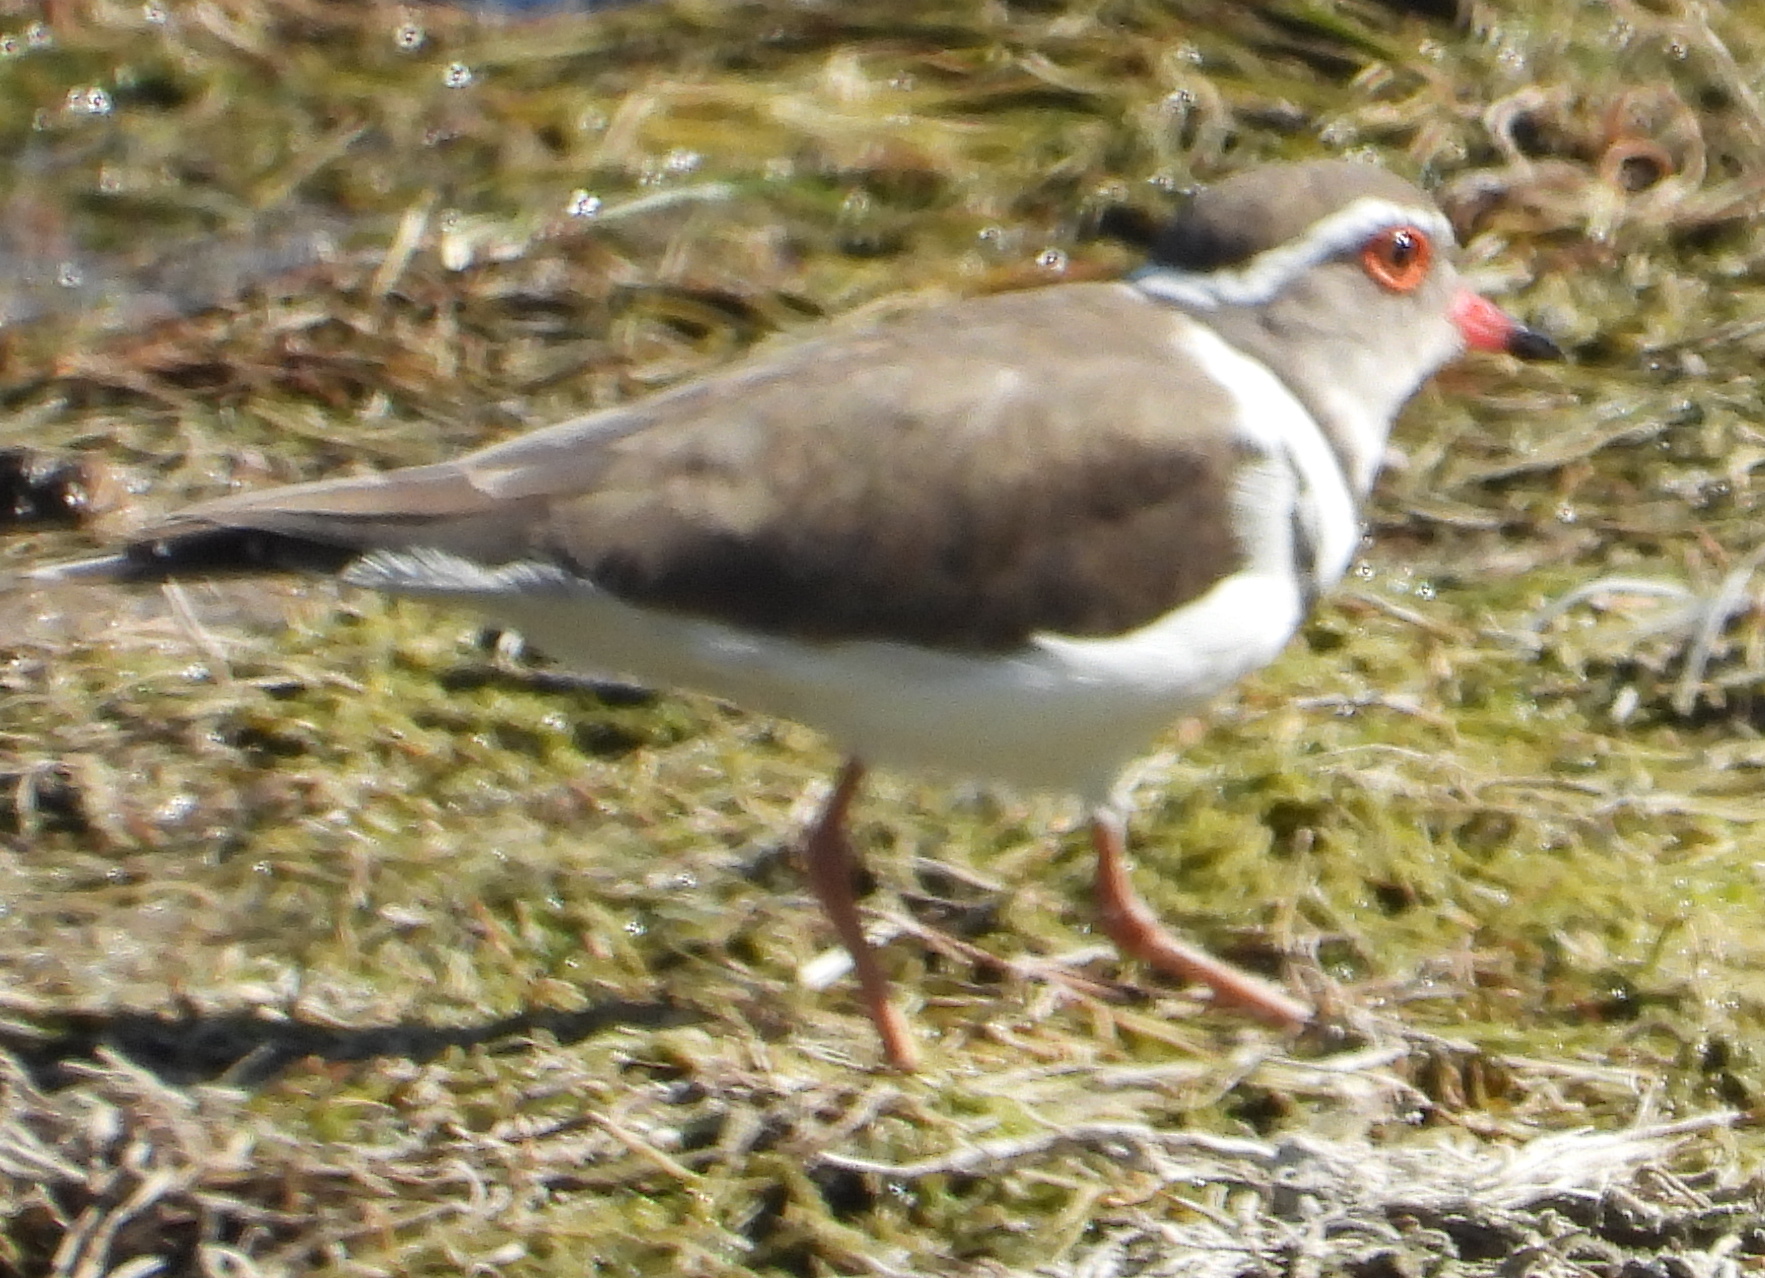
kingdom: Animalia
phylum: Chordata
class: Aves
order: Charadriiformes
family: Charadriidae
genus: Charadrius
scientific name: Charadrius tricollaris
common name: Three-banded plover
